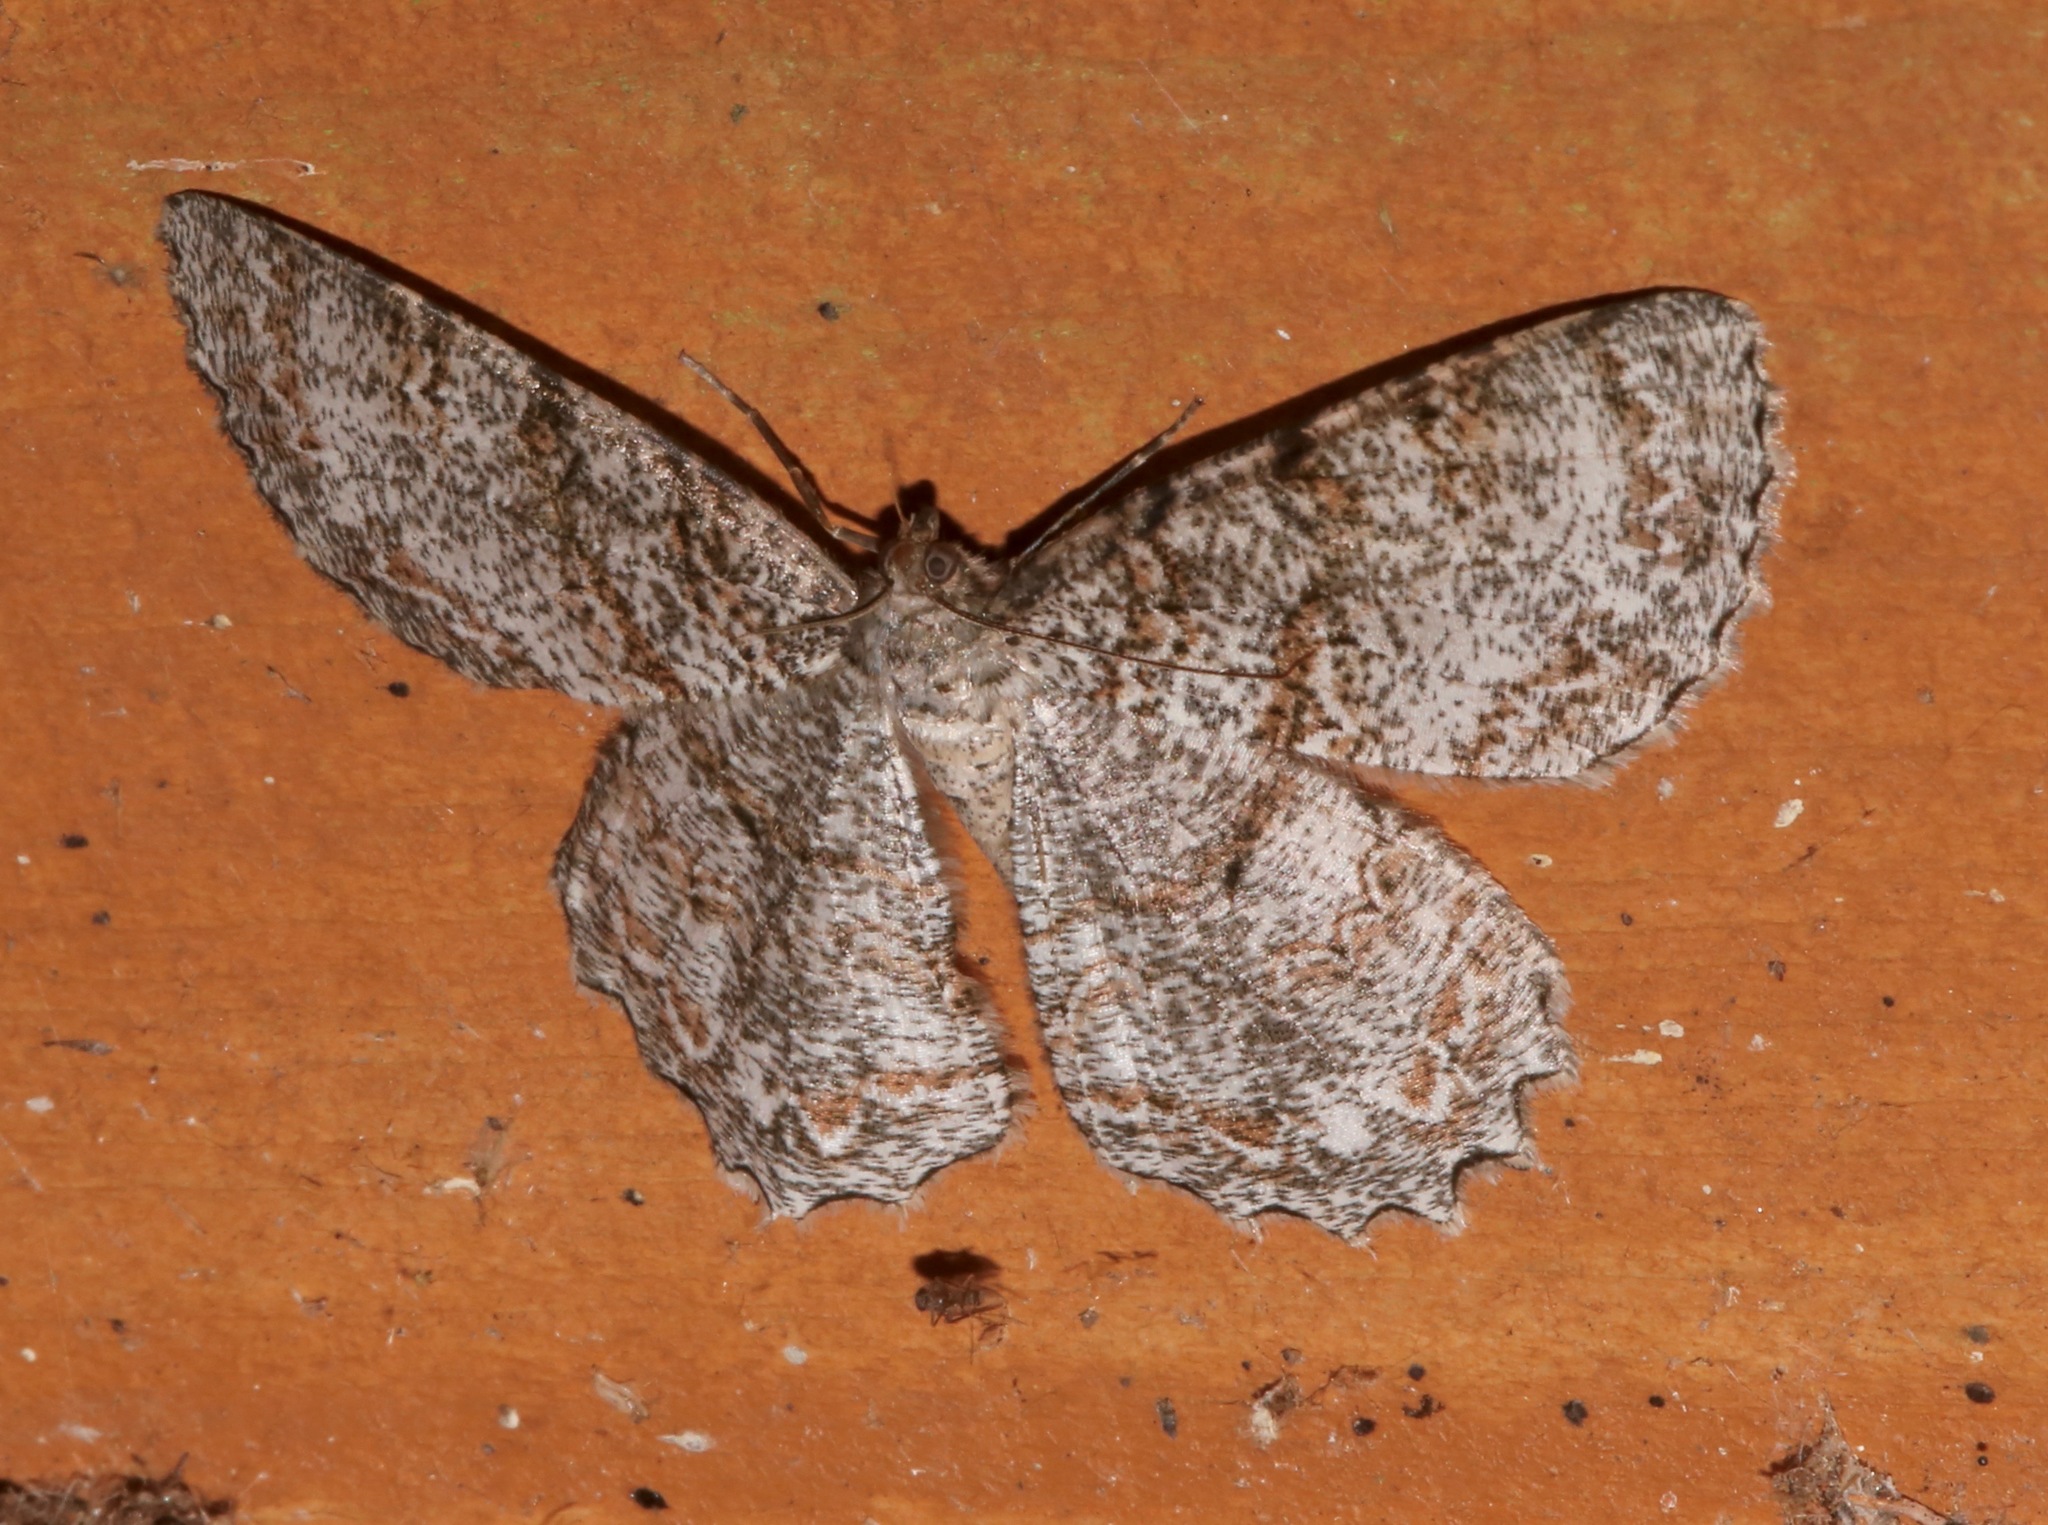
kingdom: Animalia
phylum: Arthropoda
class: Insecta
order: Lepidoptera
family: Geometridae
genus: Epimecis
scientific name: Epimecis hortaria
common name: Tulip-tree beauty
